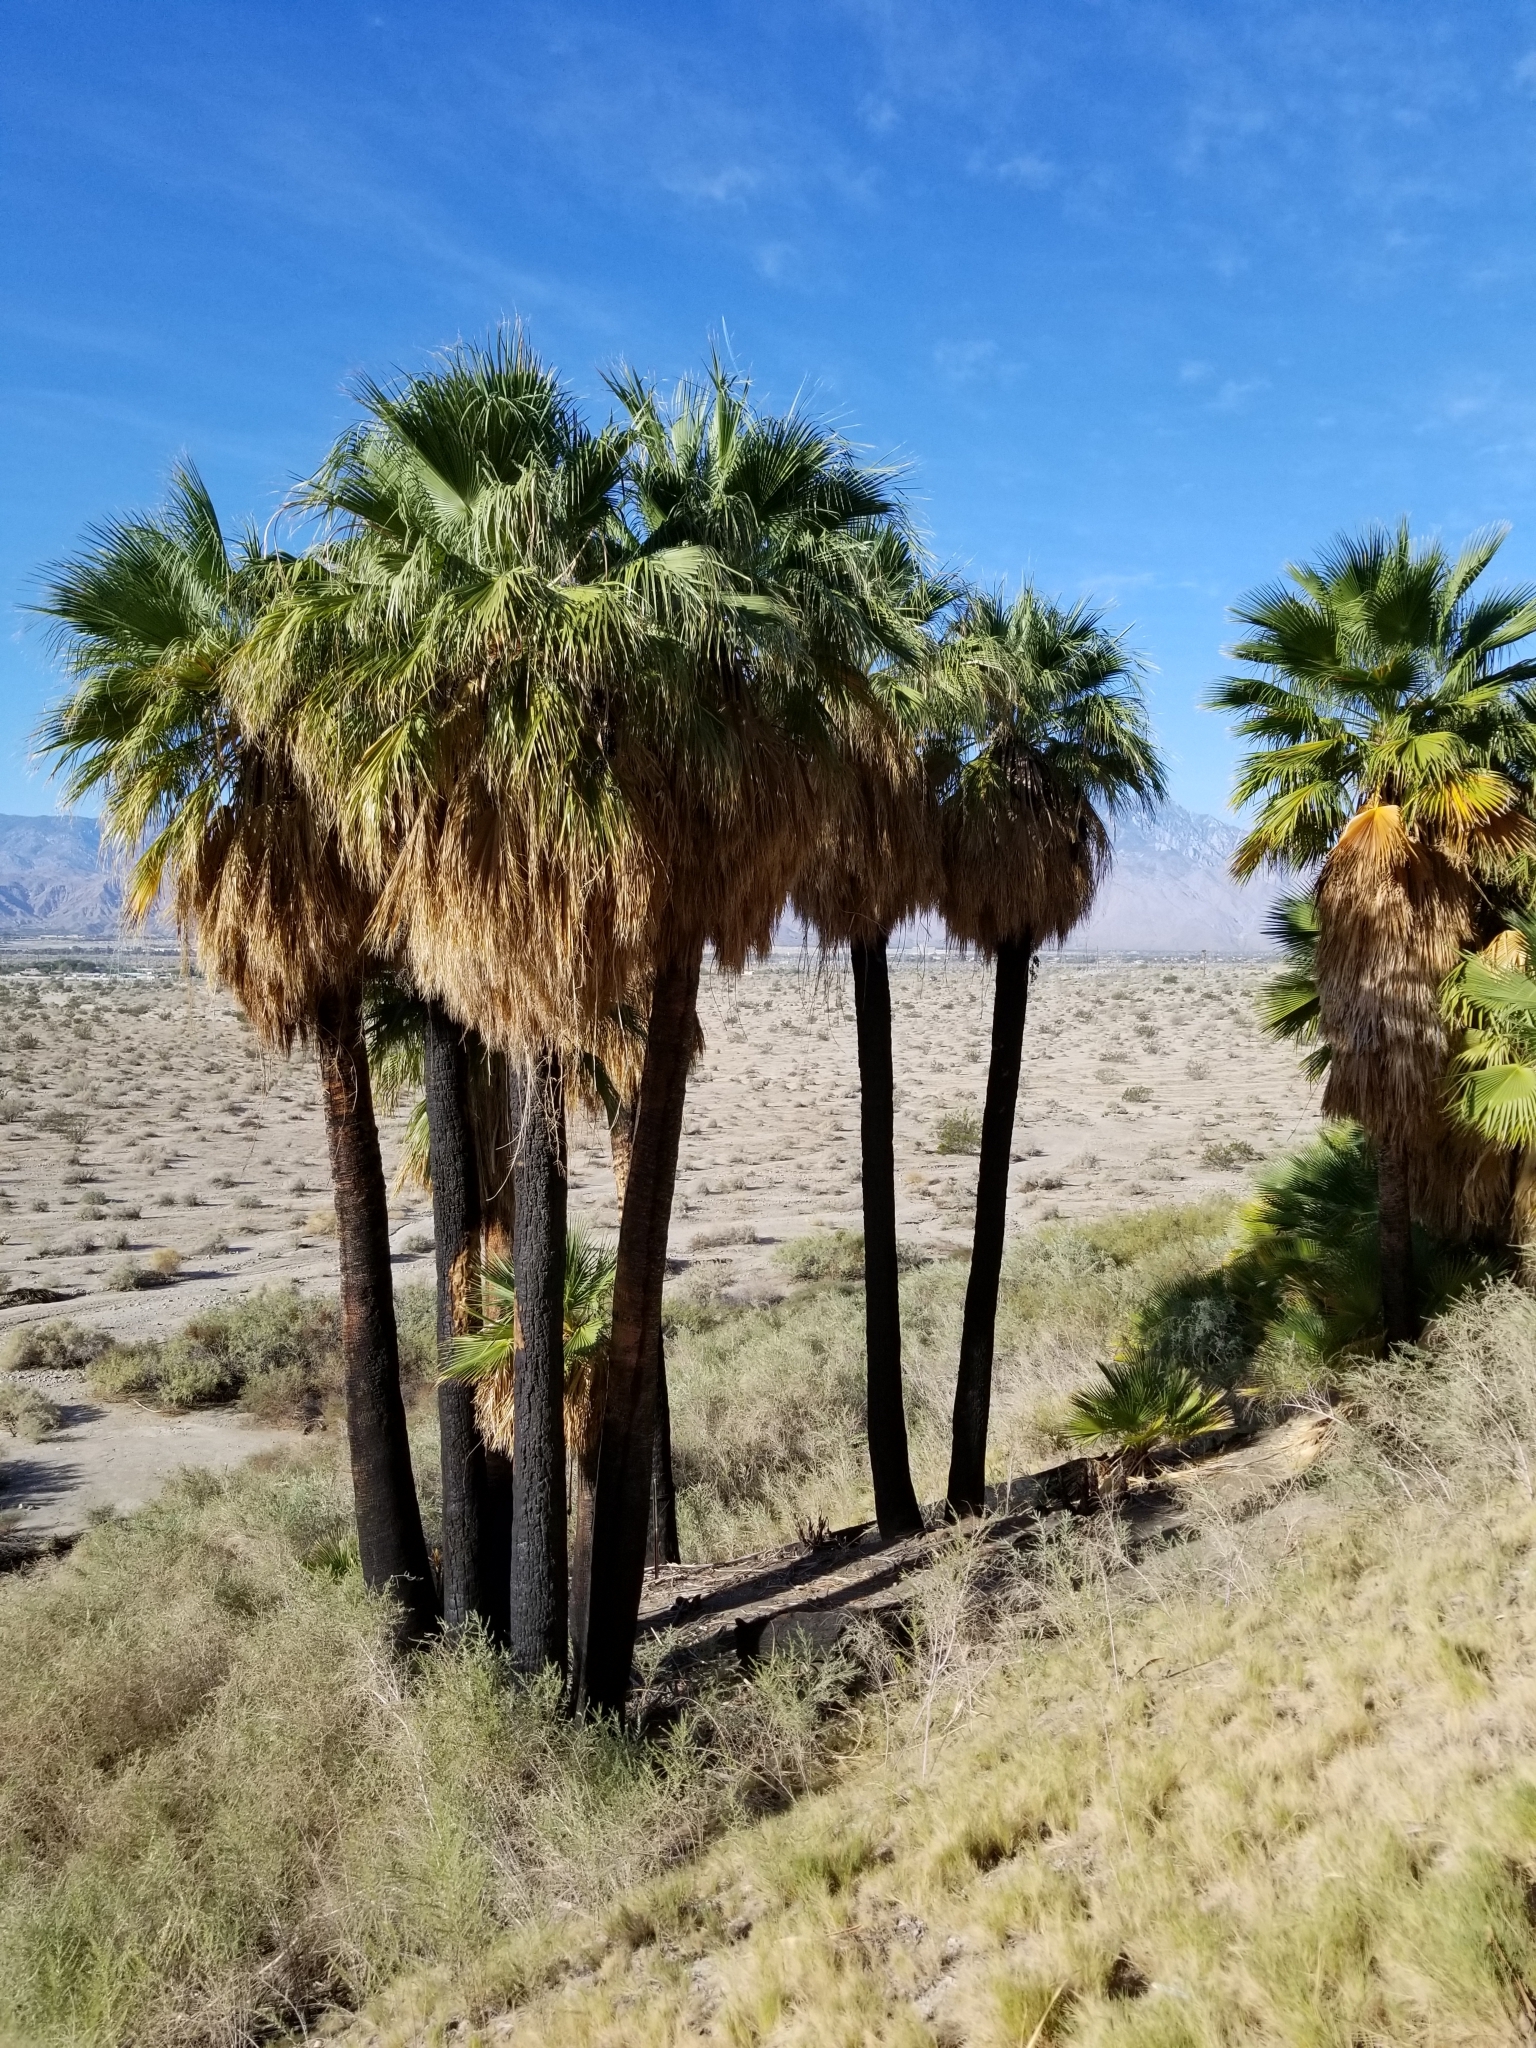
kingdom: Plantae
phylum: Tracheophyta
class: Liliopsida
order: Arecales
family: Arecaceae
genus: Washingtonia
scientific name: Washingtonia filifera
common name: California fan palm
